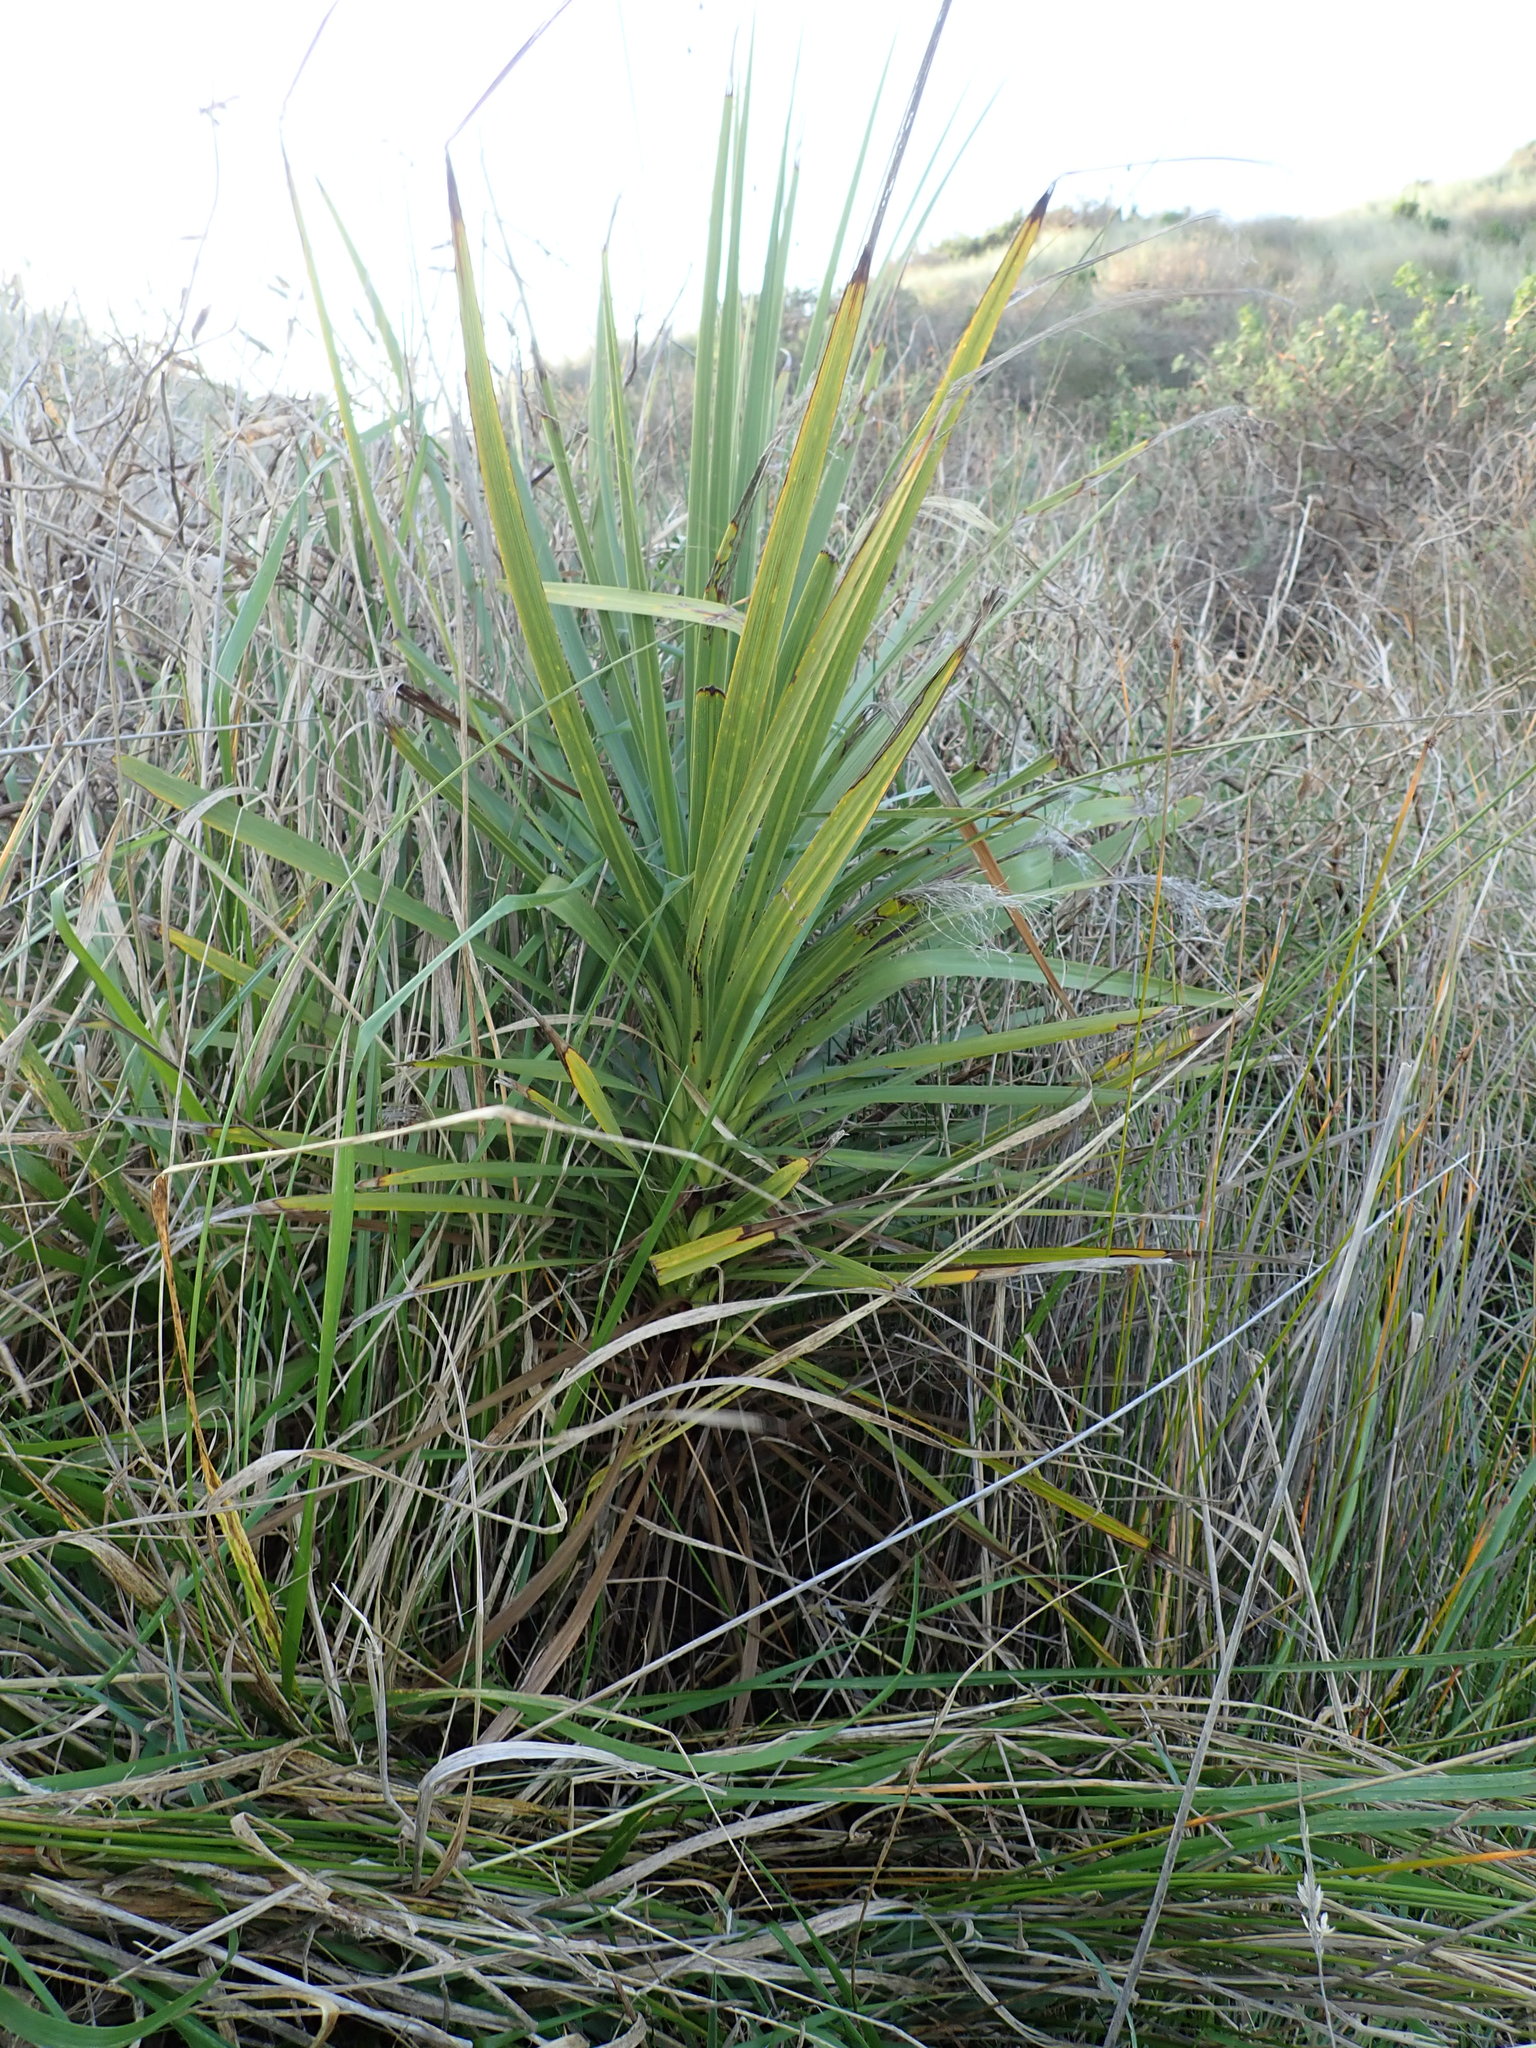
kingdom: Plantae
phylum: Tracheophyta
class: Liliopsida
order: Asparagales
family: Asparagaceae
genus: Cordyline
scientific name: Cordyline australis
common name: Cabbage-palm
